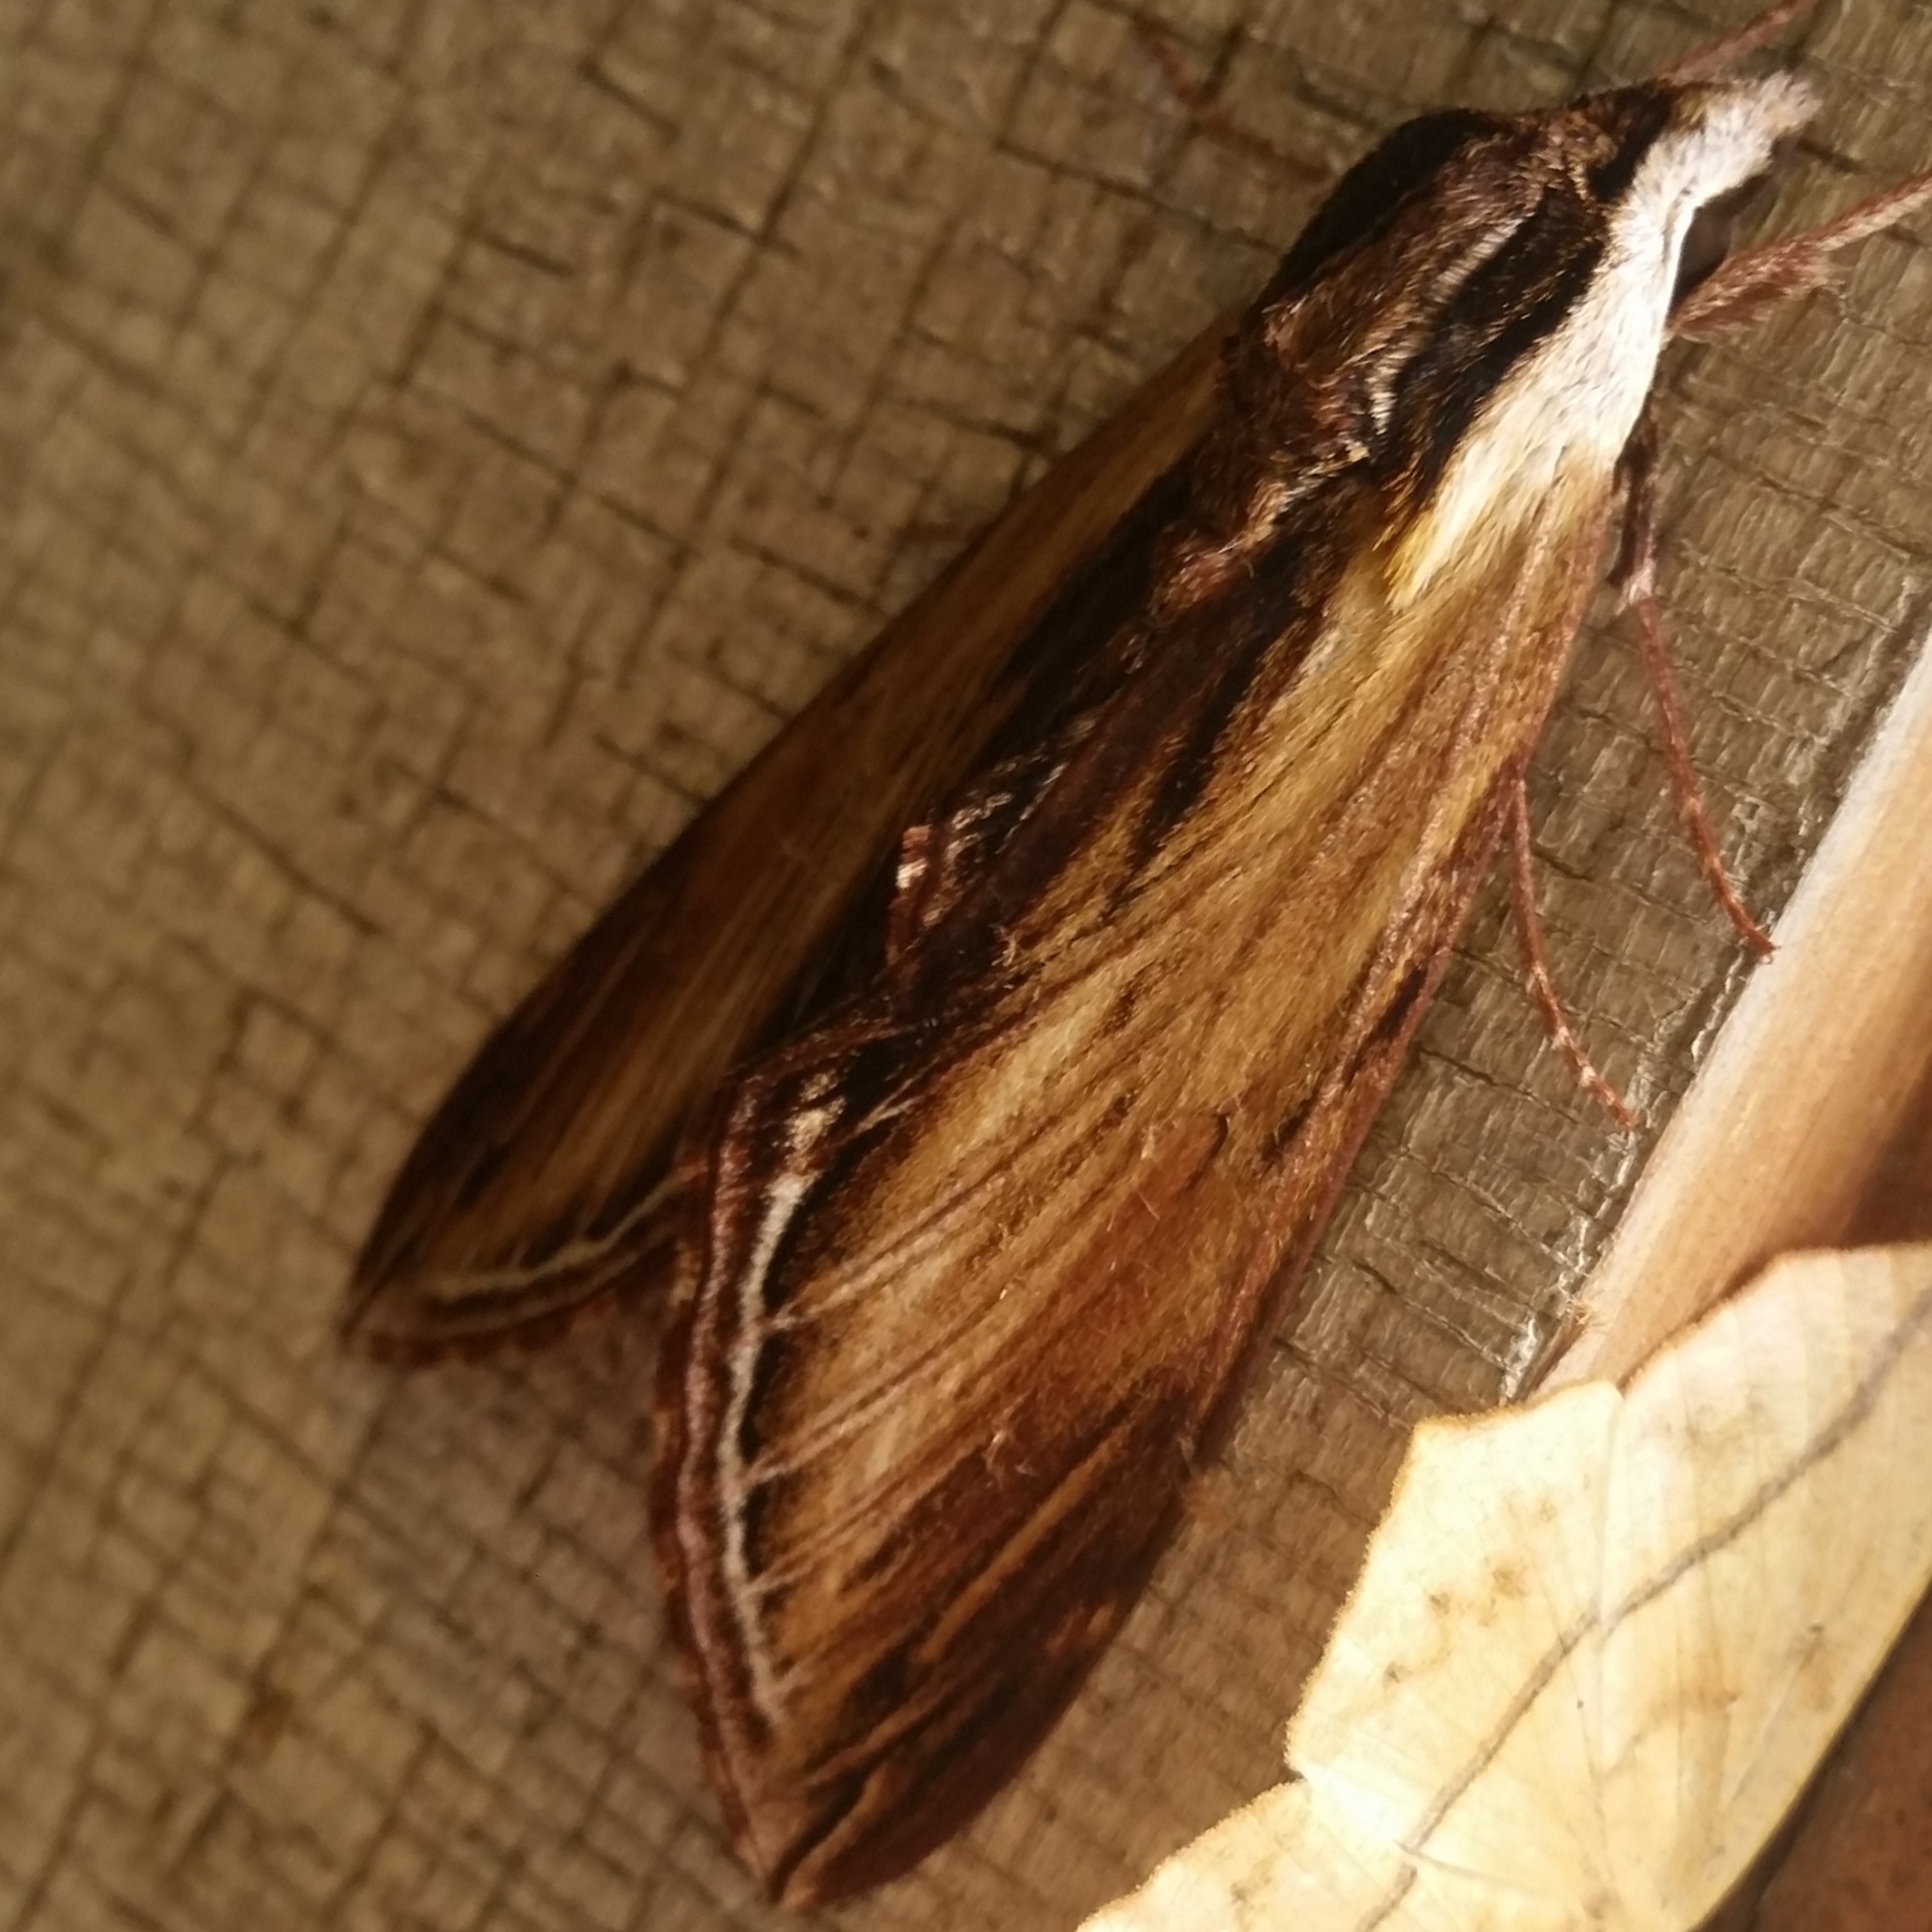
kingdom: Animalia
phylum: Arthropoda
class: Insecta
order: Lepidoptera
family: Sphingidae
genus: Sphinx
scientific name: Sphinx kalmiae
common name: Laurel sphinx
